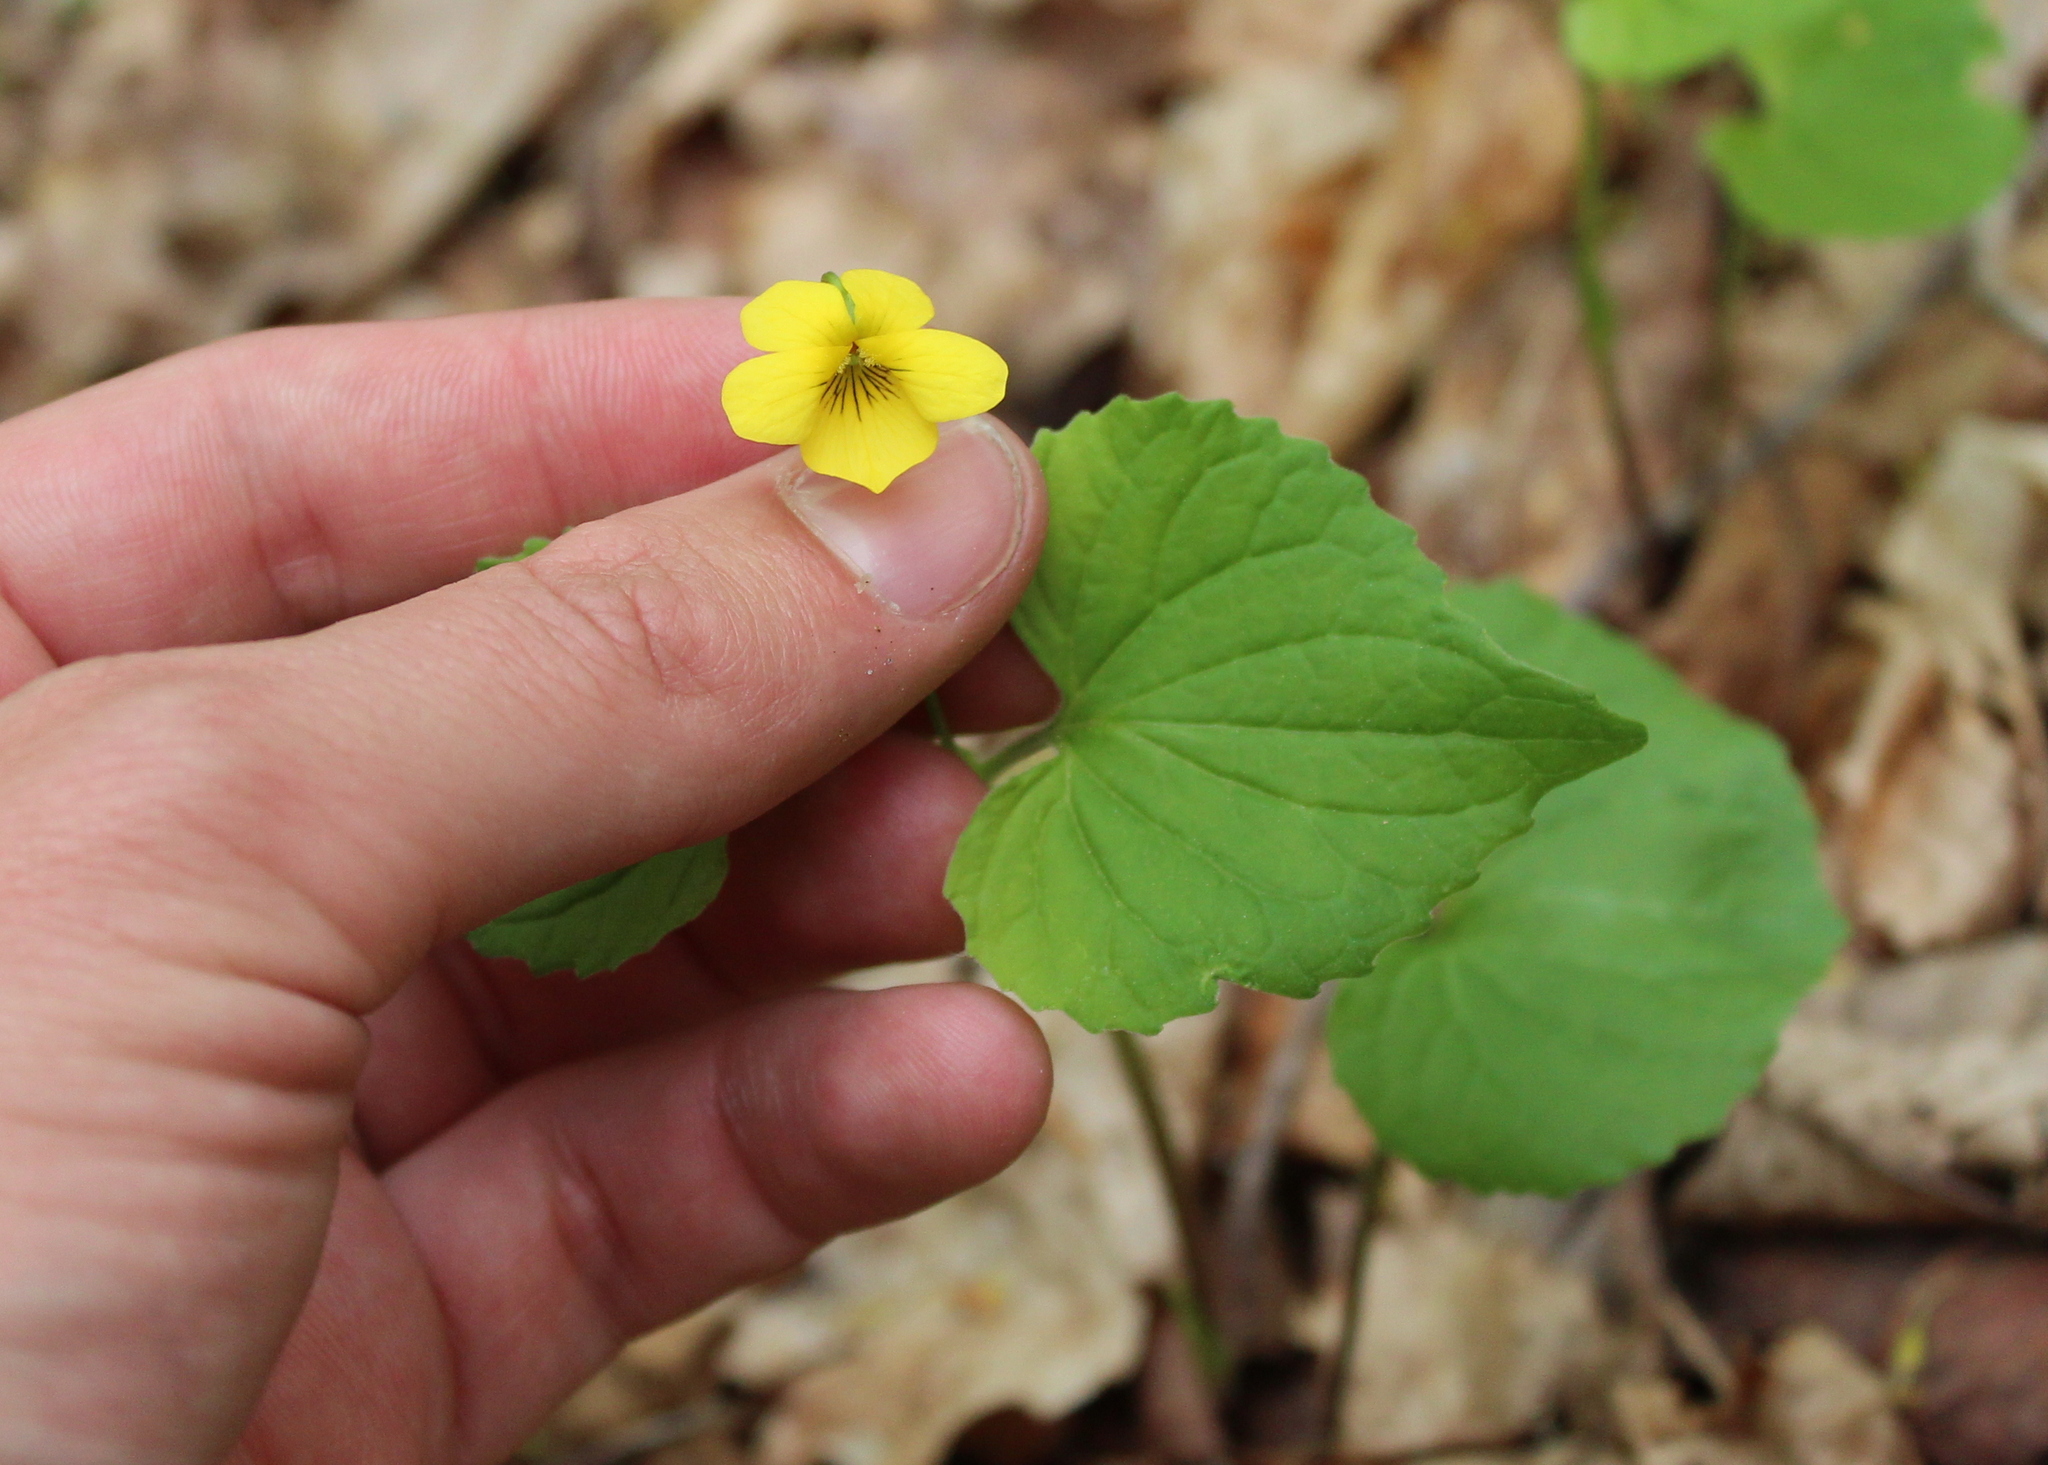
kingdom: Plantae
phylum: Tracheophyta
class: Magnoliopsida
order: Malpighiales
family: Violaceae
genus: Viola
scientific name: Viola eriocarpa
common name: Smooth yellow violet
